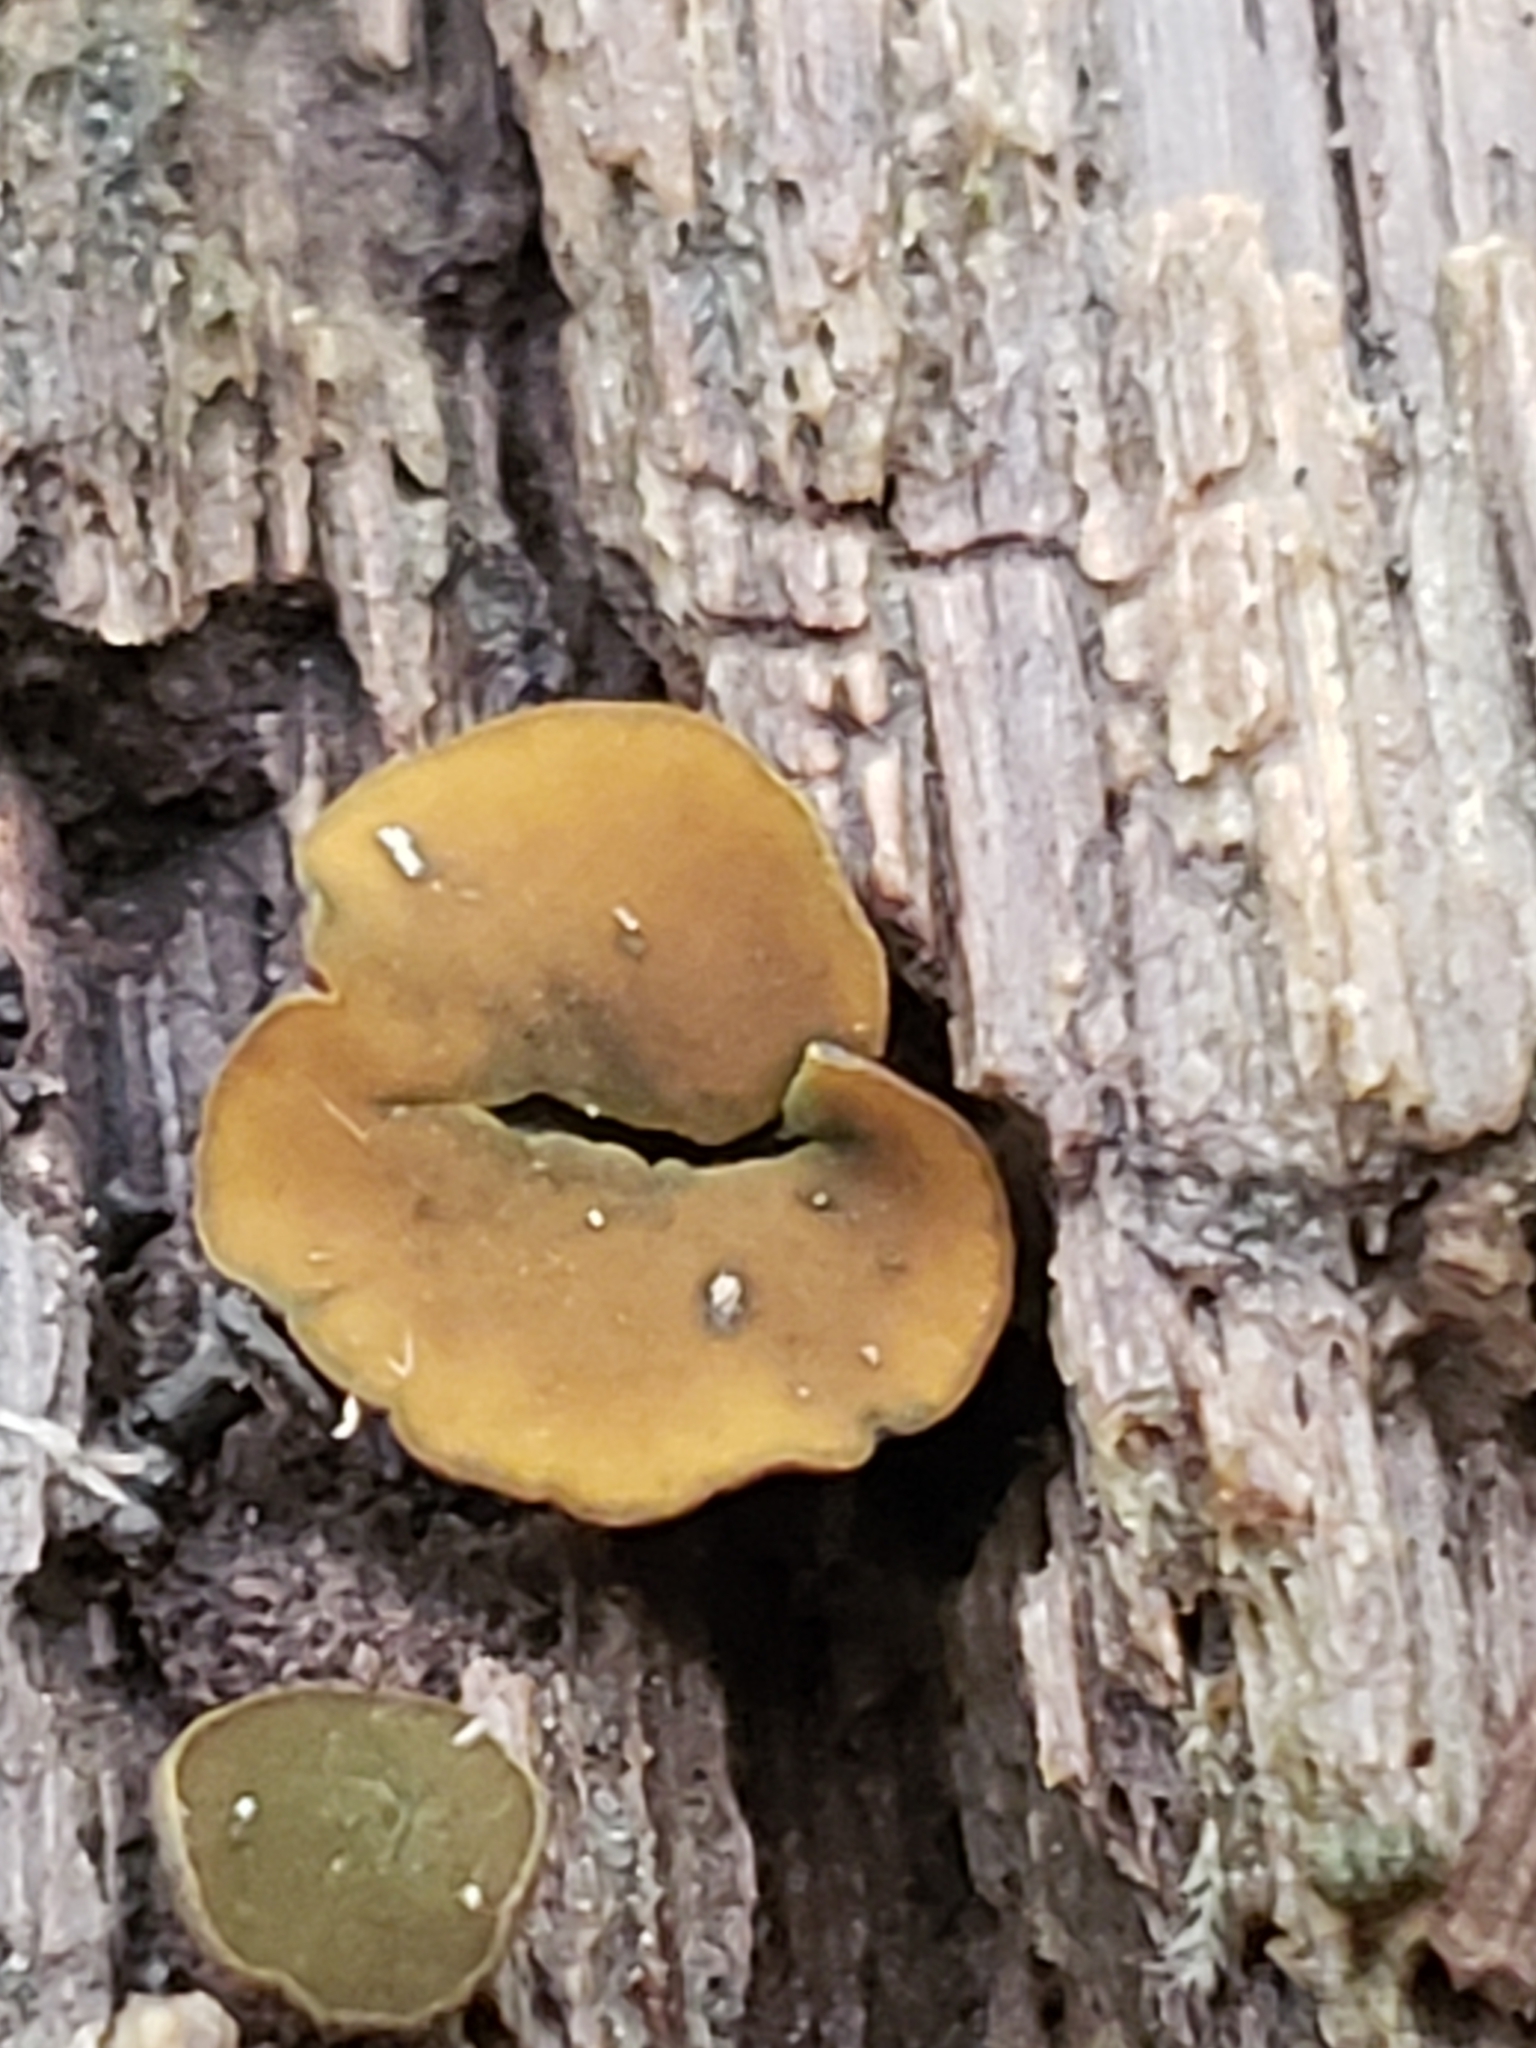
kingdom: Fungi
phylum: Ascomycota
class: Leotiomycetes
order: Helotiales
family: Cenangiaceae
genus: Chlorencoelia
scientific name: Chlorencoelia
